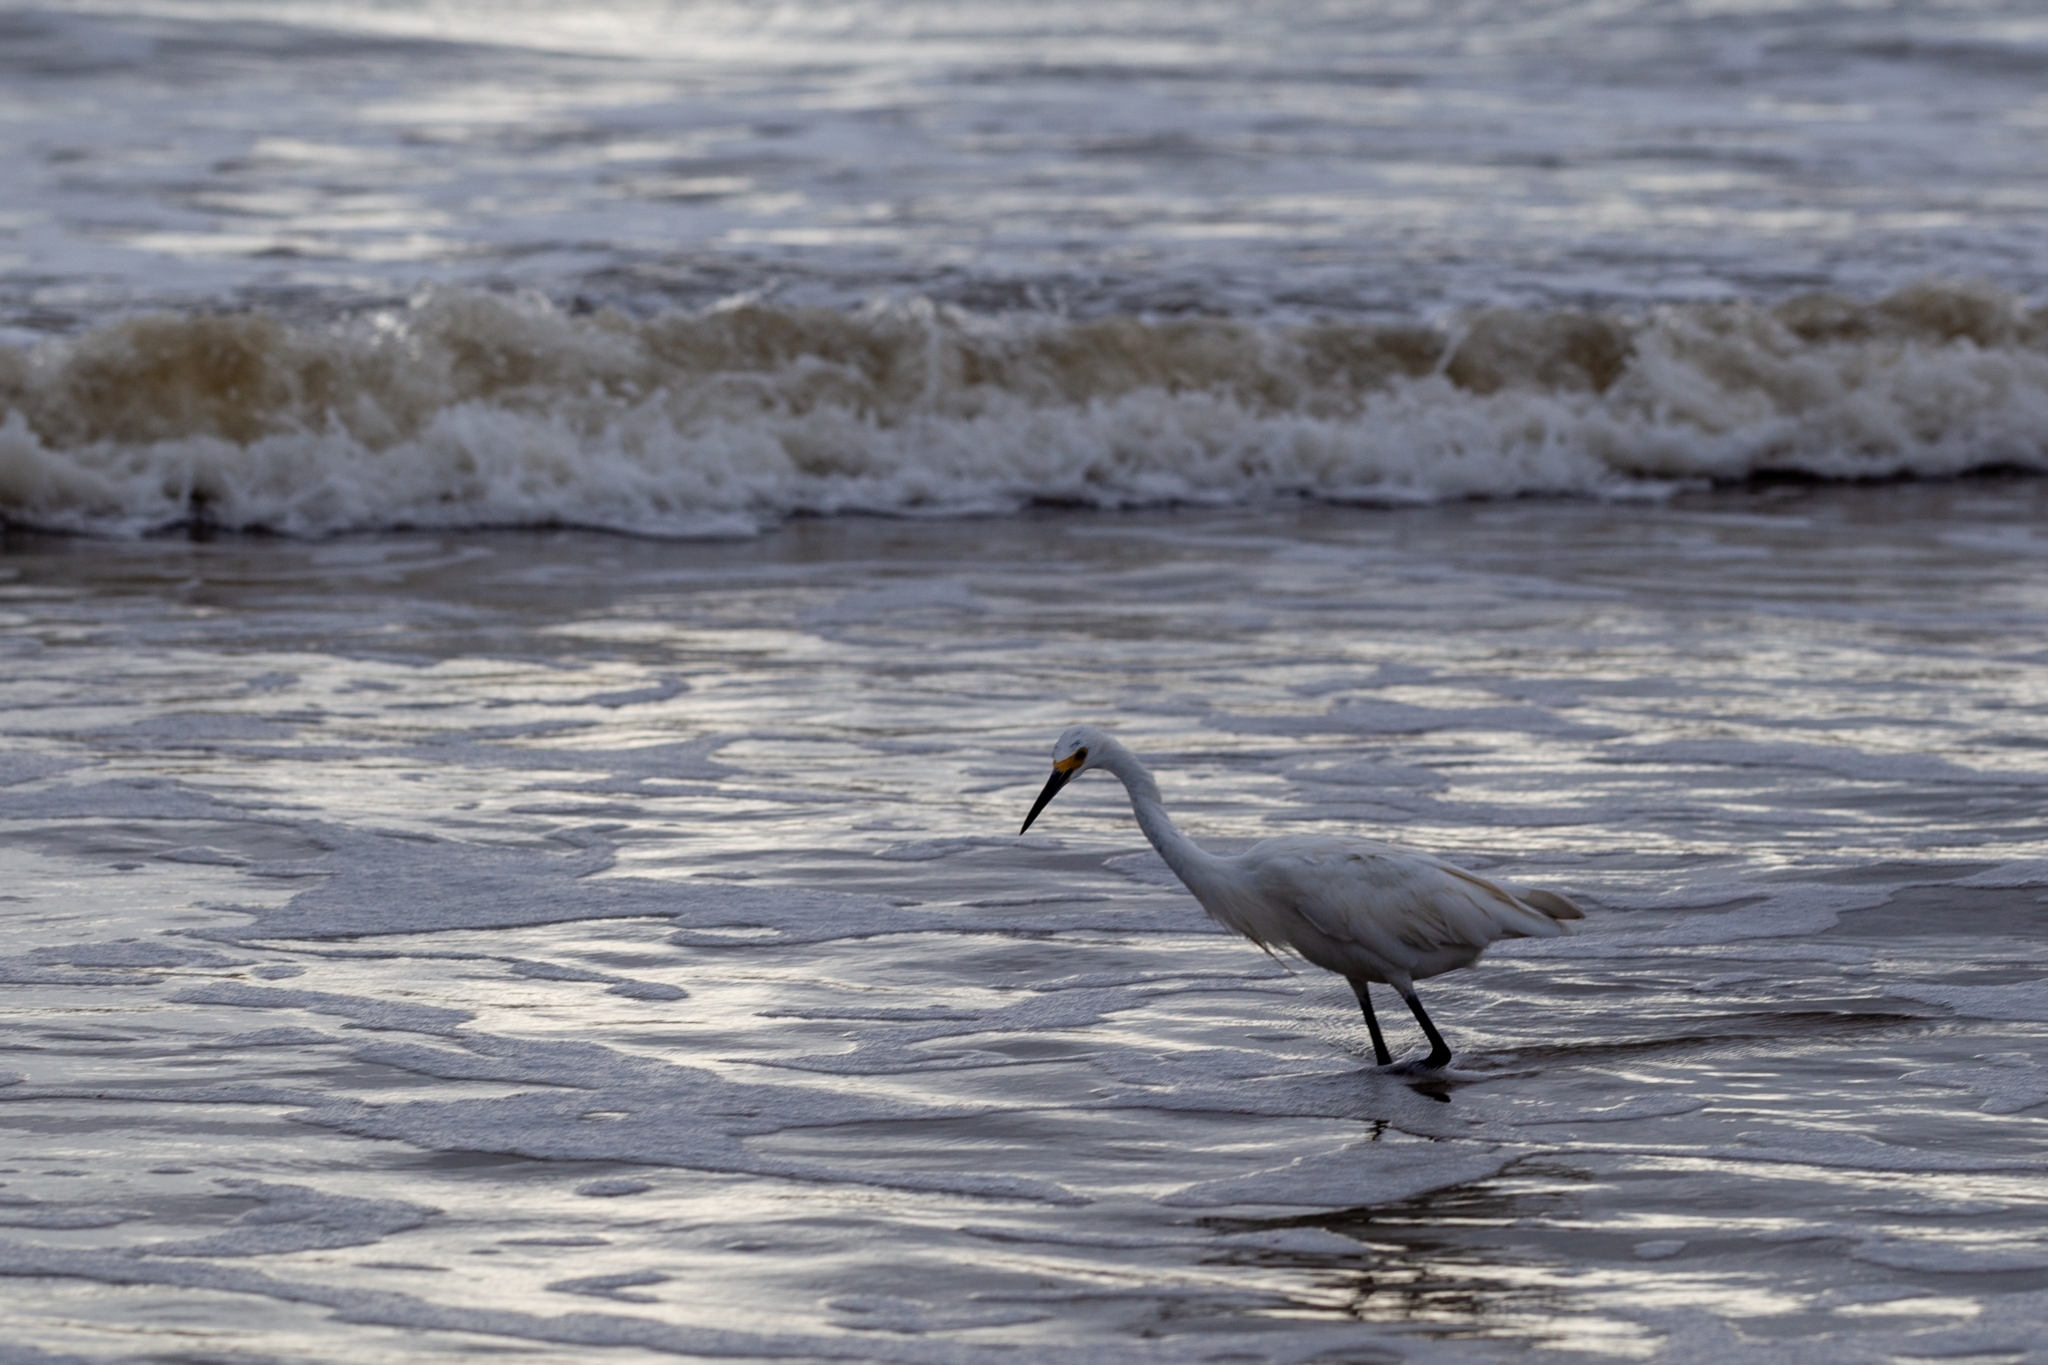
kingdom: Animalia
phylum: Chordata
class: Aves
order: Pelecaniformes
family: Ardeidae
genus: Egretta
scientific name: Egretta thula
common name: Snowy egret
